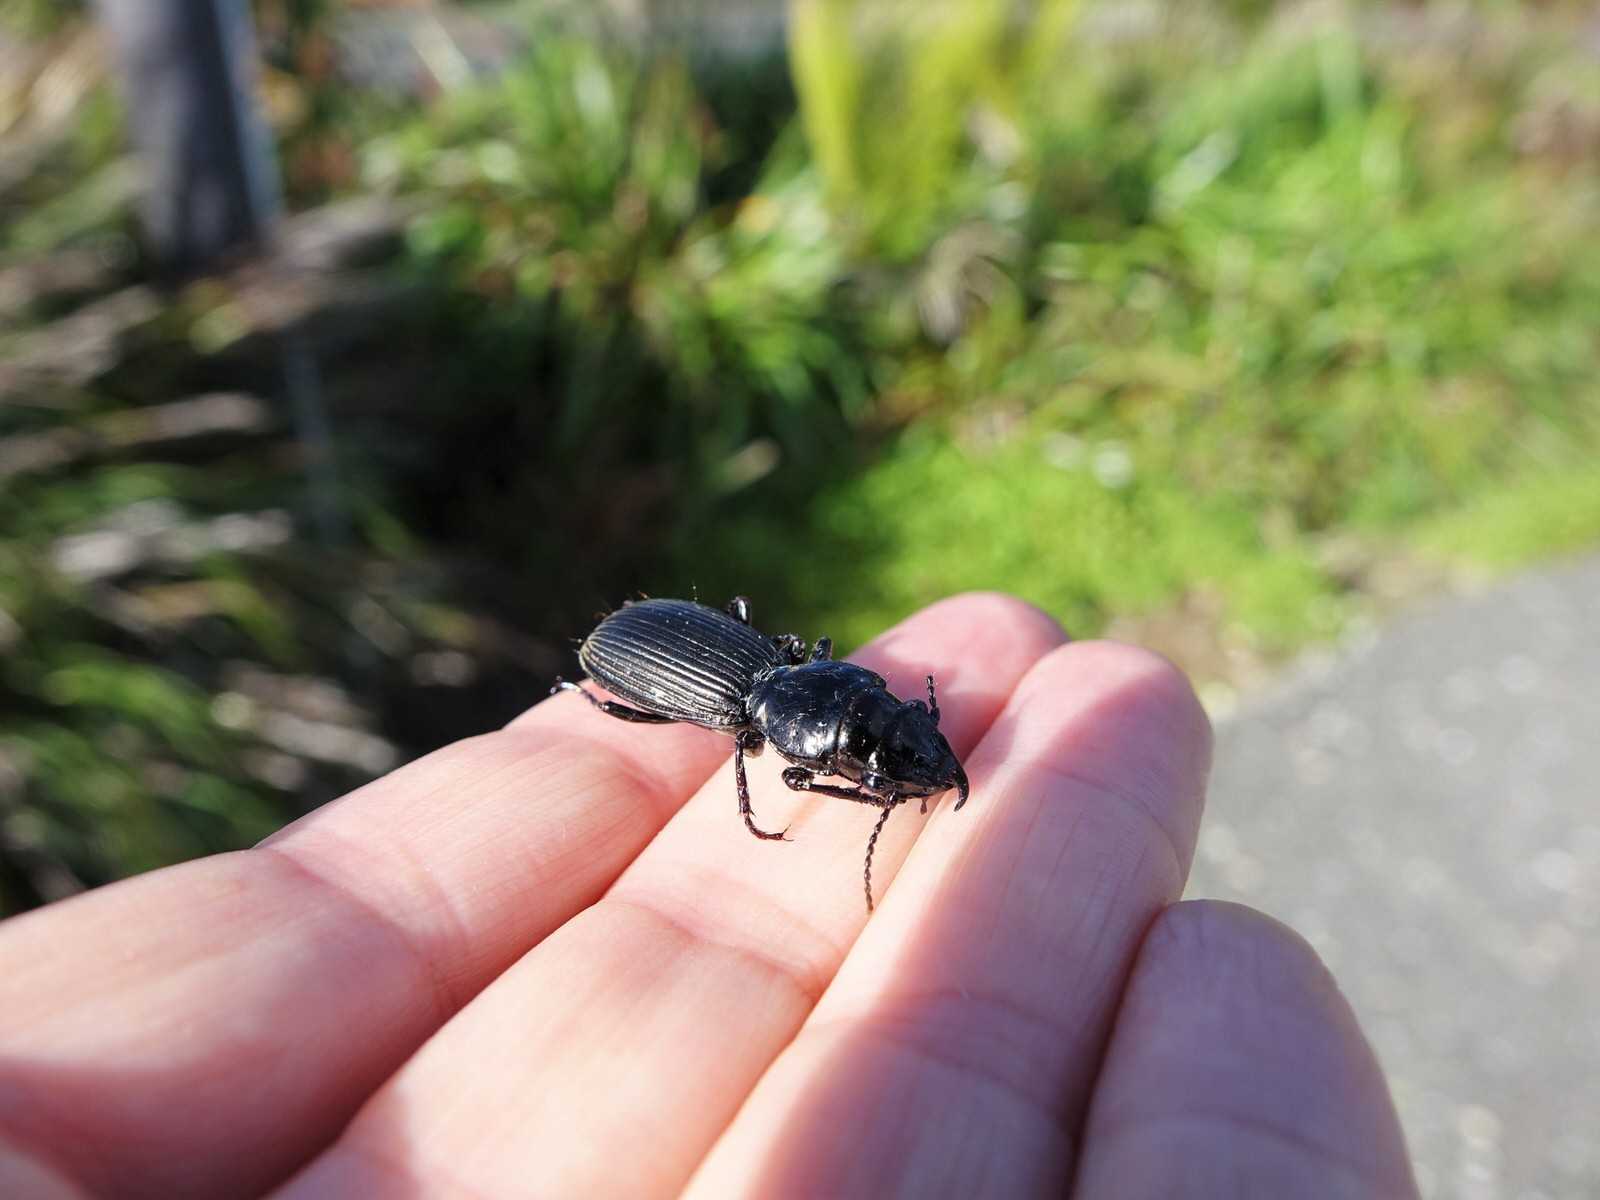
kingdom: Animalia
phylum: Arthropoda
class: Insecta
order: Coleoptera
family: Carabidae
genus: Mecodema
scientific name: Mecodema spiniferum
